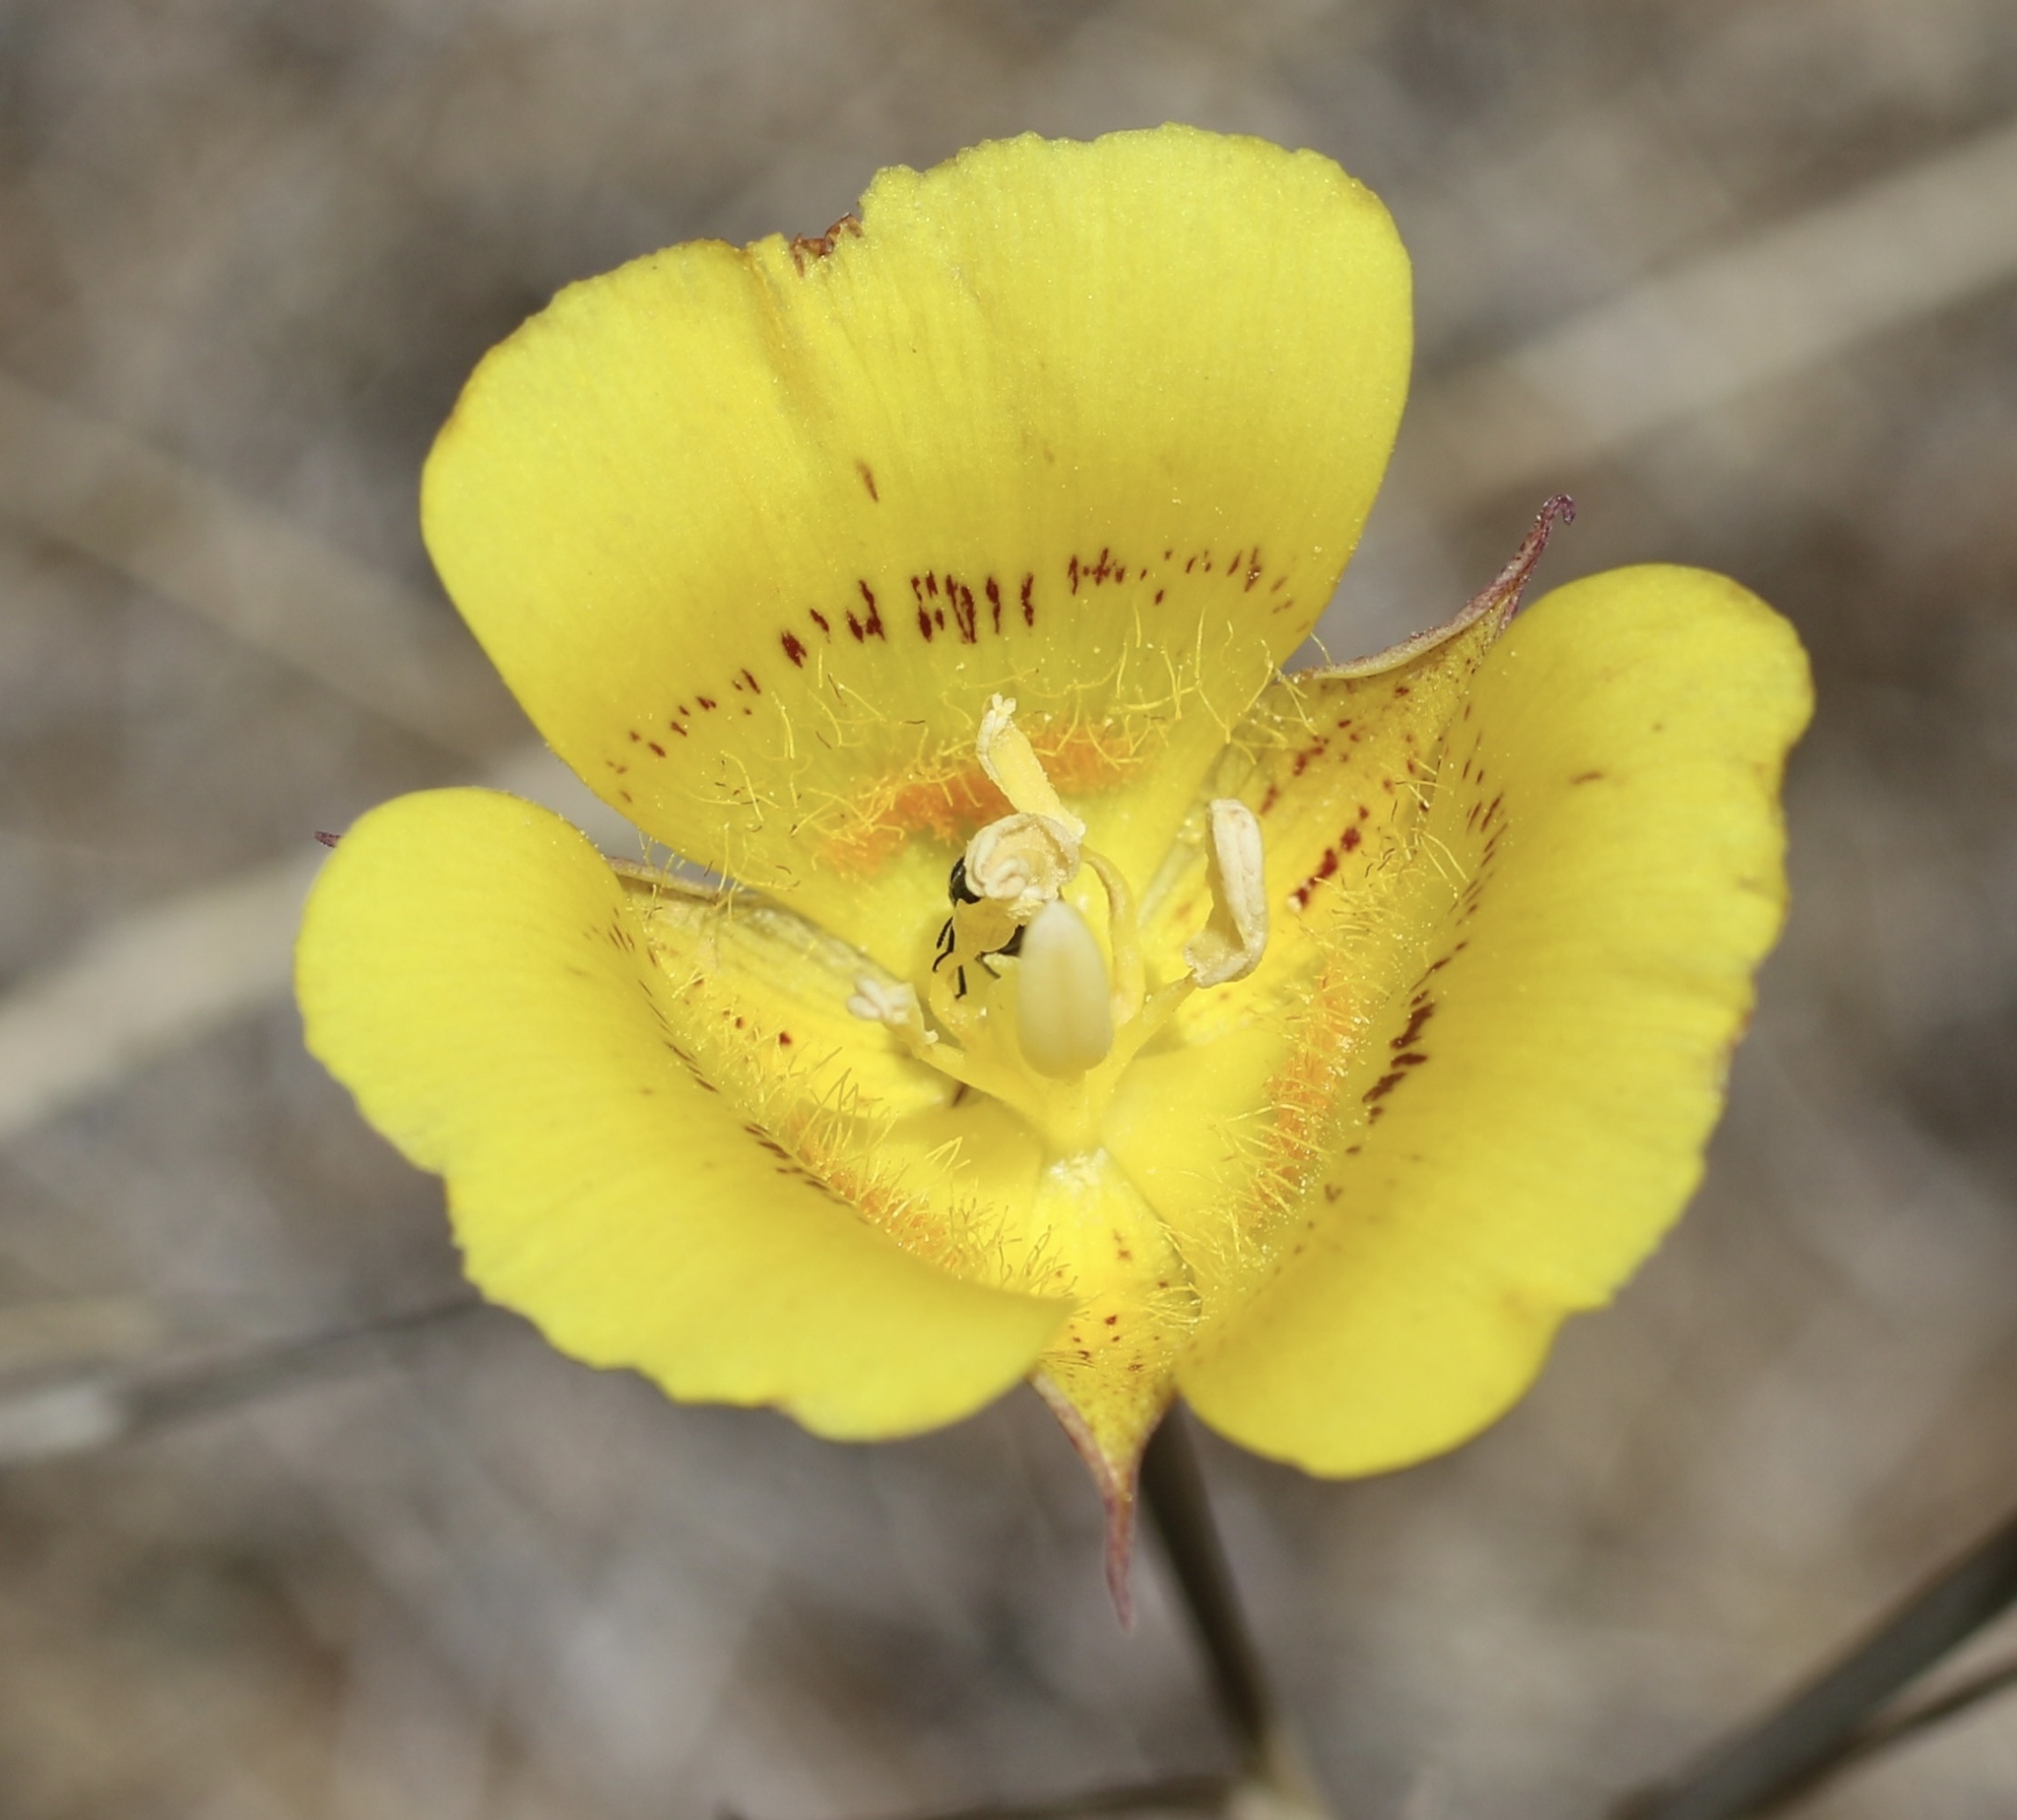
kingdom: Plantae
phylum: Tracheophyta
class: Liliopsida
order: Liliales
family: Liliaceae
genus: Calochortus
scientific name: Calochortus luteus
